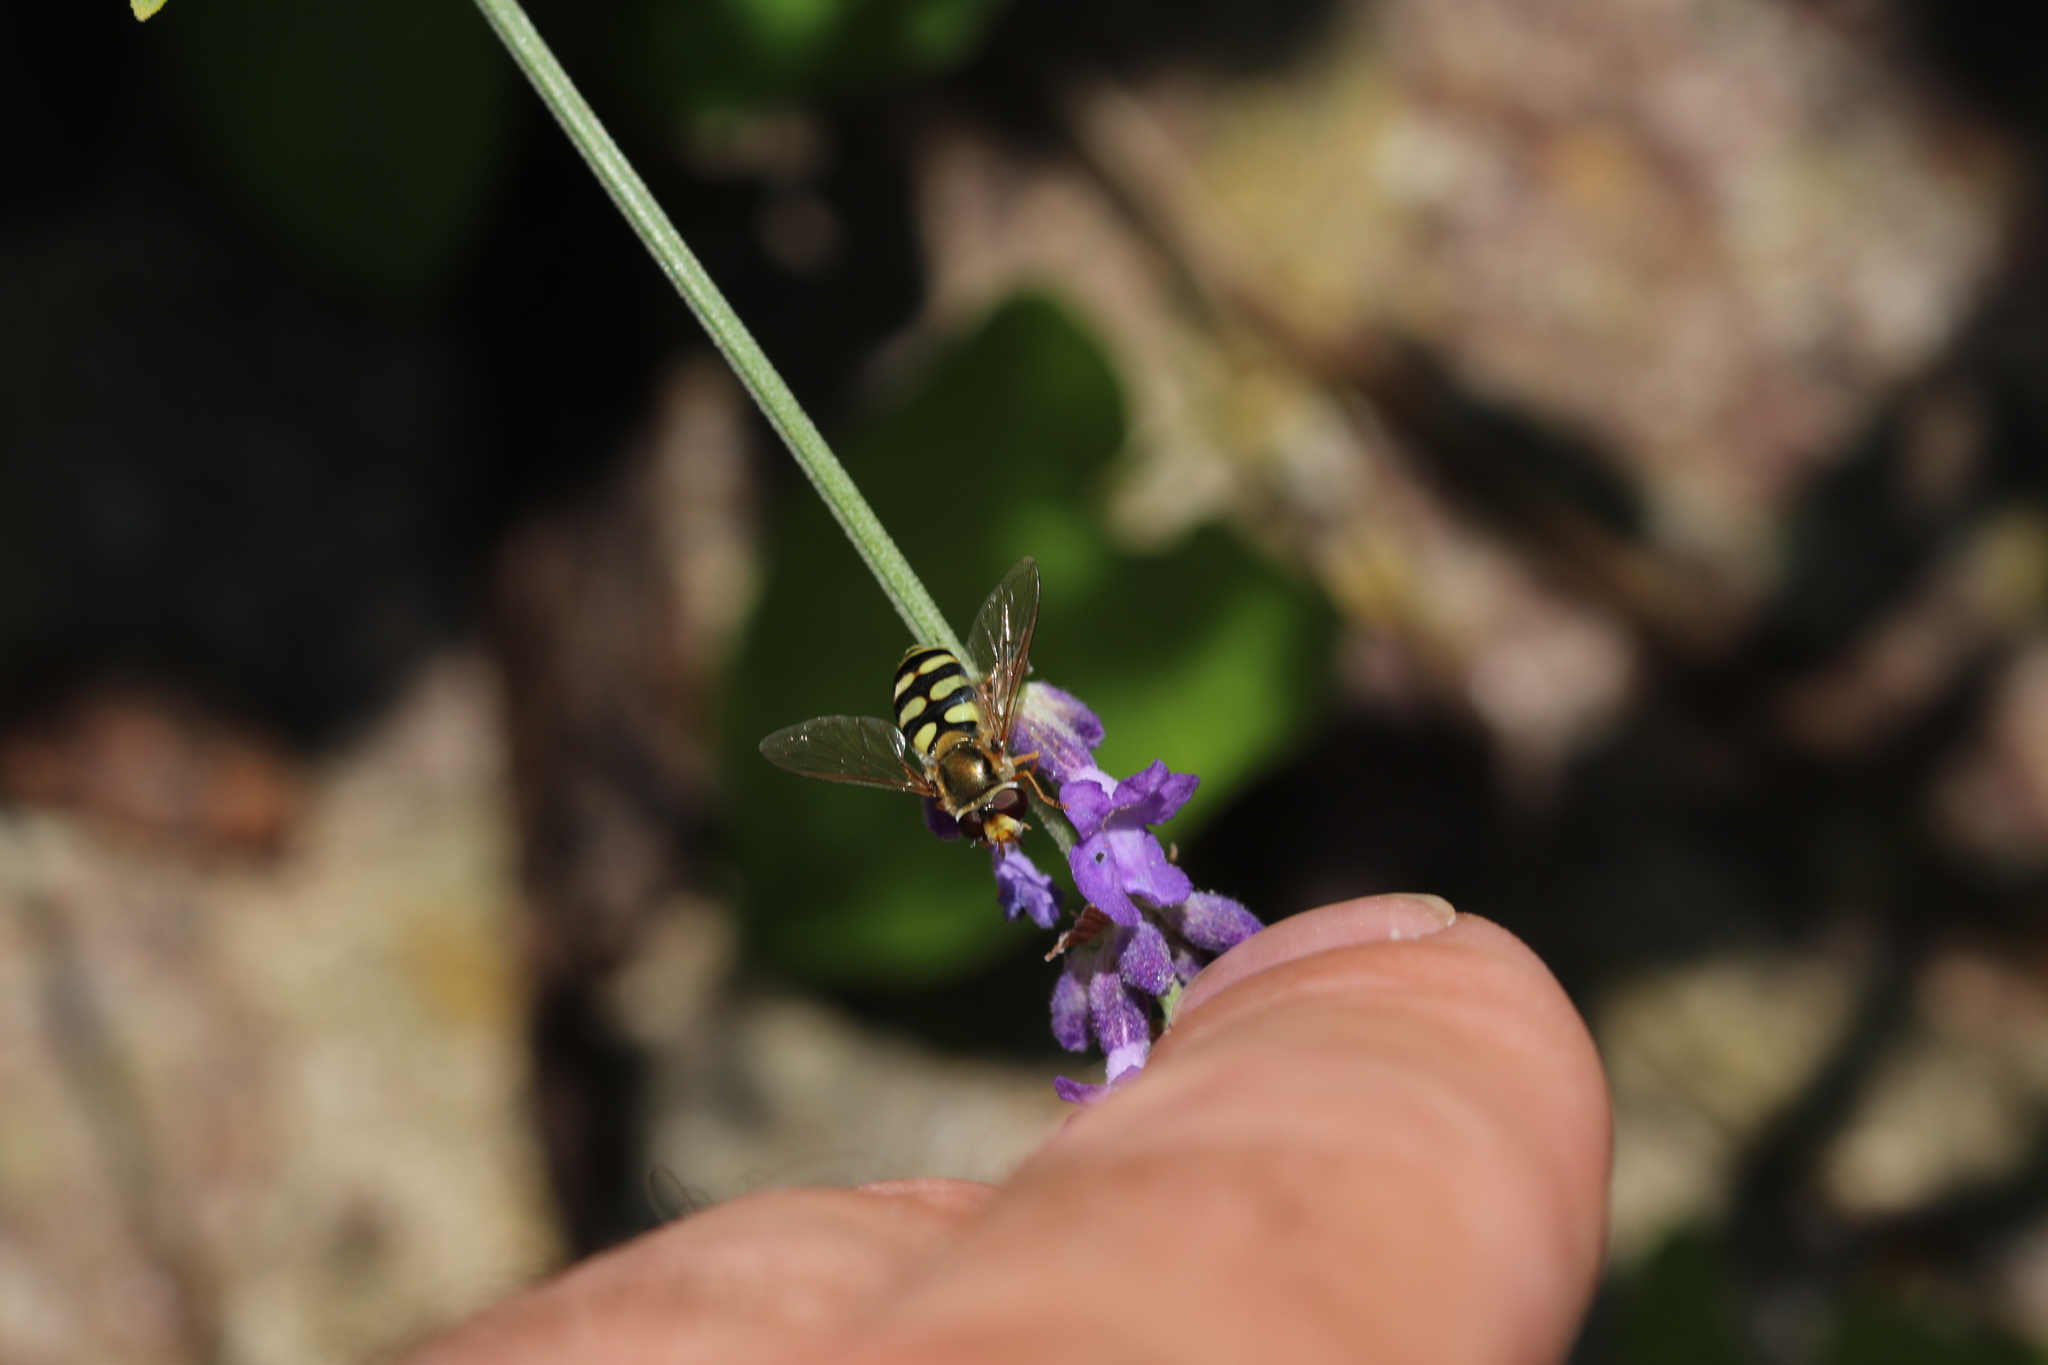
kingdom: Animalia
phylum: Arthropoda
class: Insecta
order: Diptera
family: Syrphidae
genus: Eupeodes
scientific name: Eupeodes corollae
